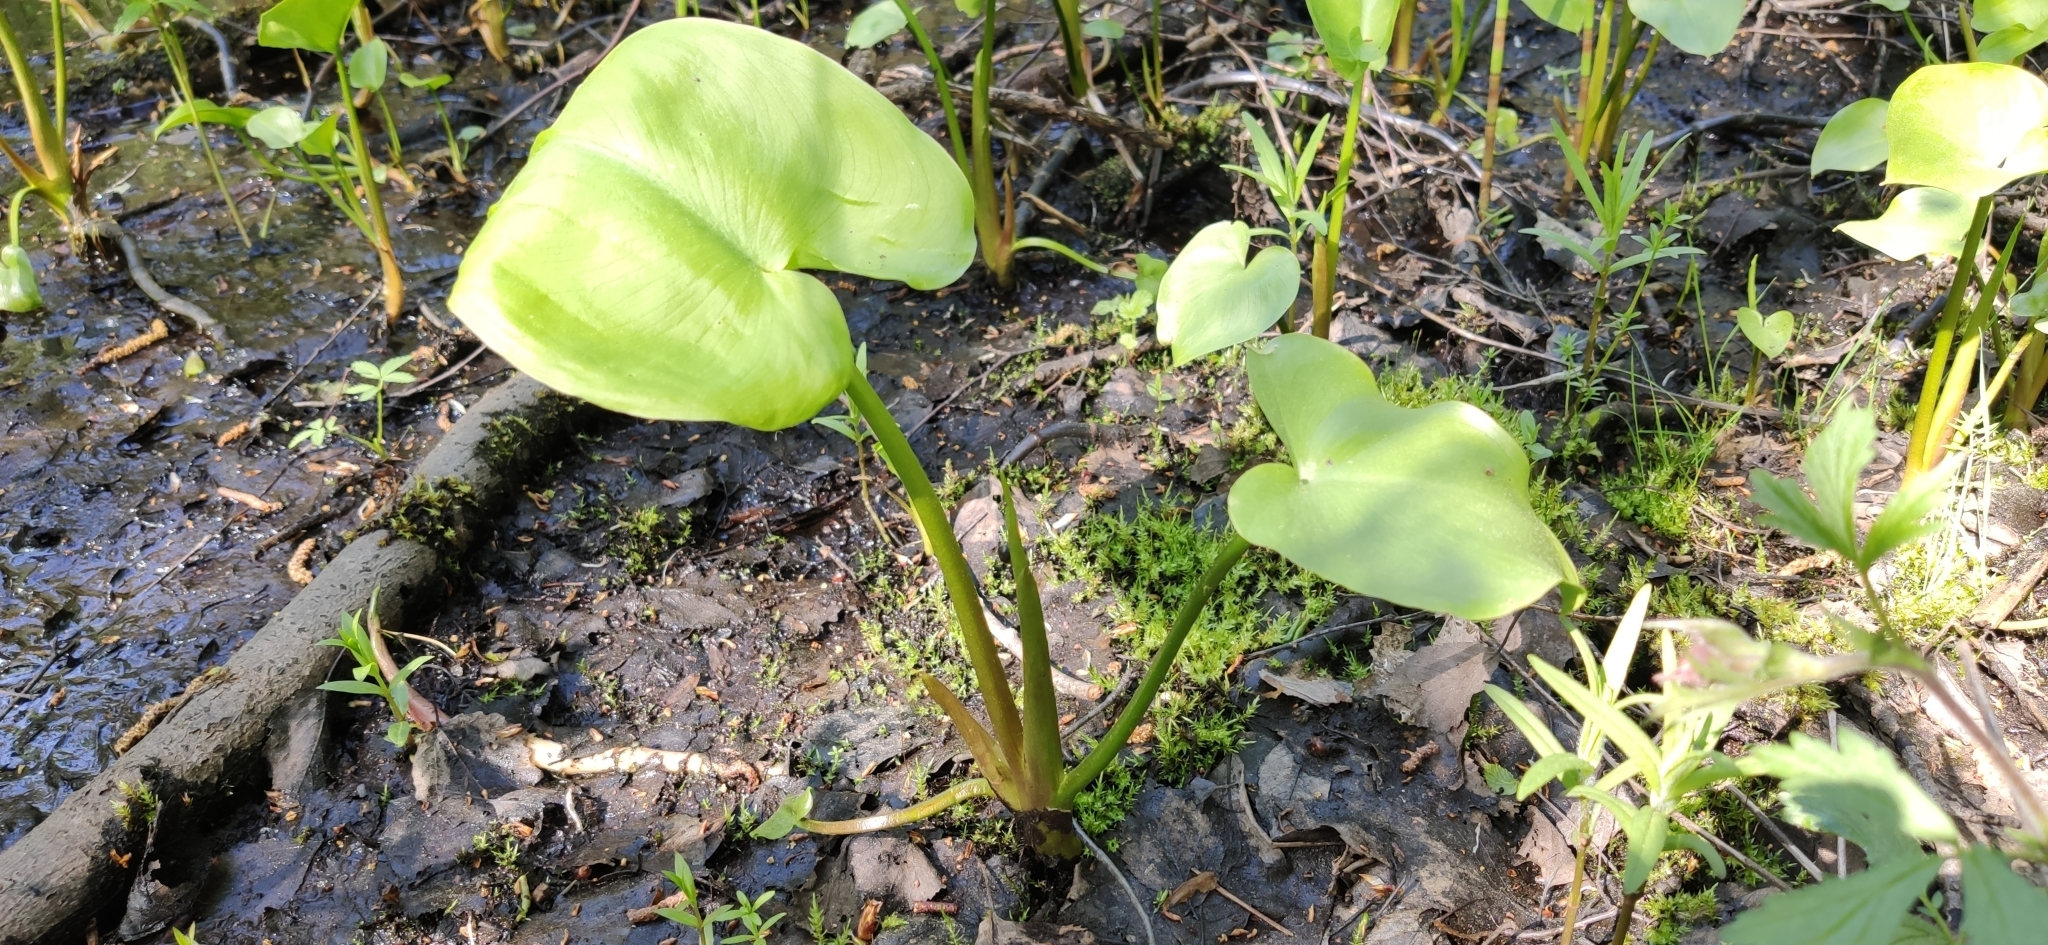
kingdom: Plantae
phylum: Tracheophyta
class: Liliopsida
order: Alismatales
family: Araceae
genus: Calla
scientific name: Calla palustris
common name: Bog arum
